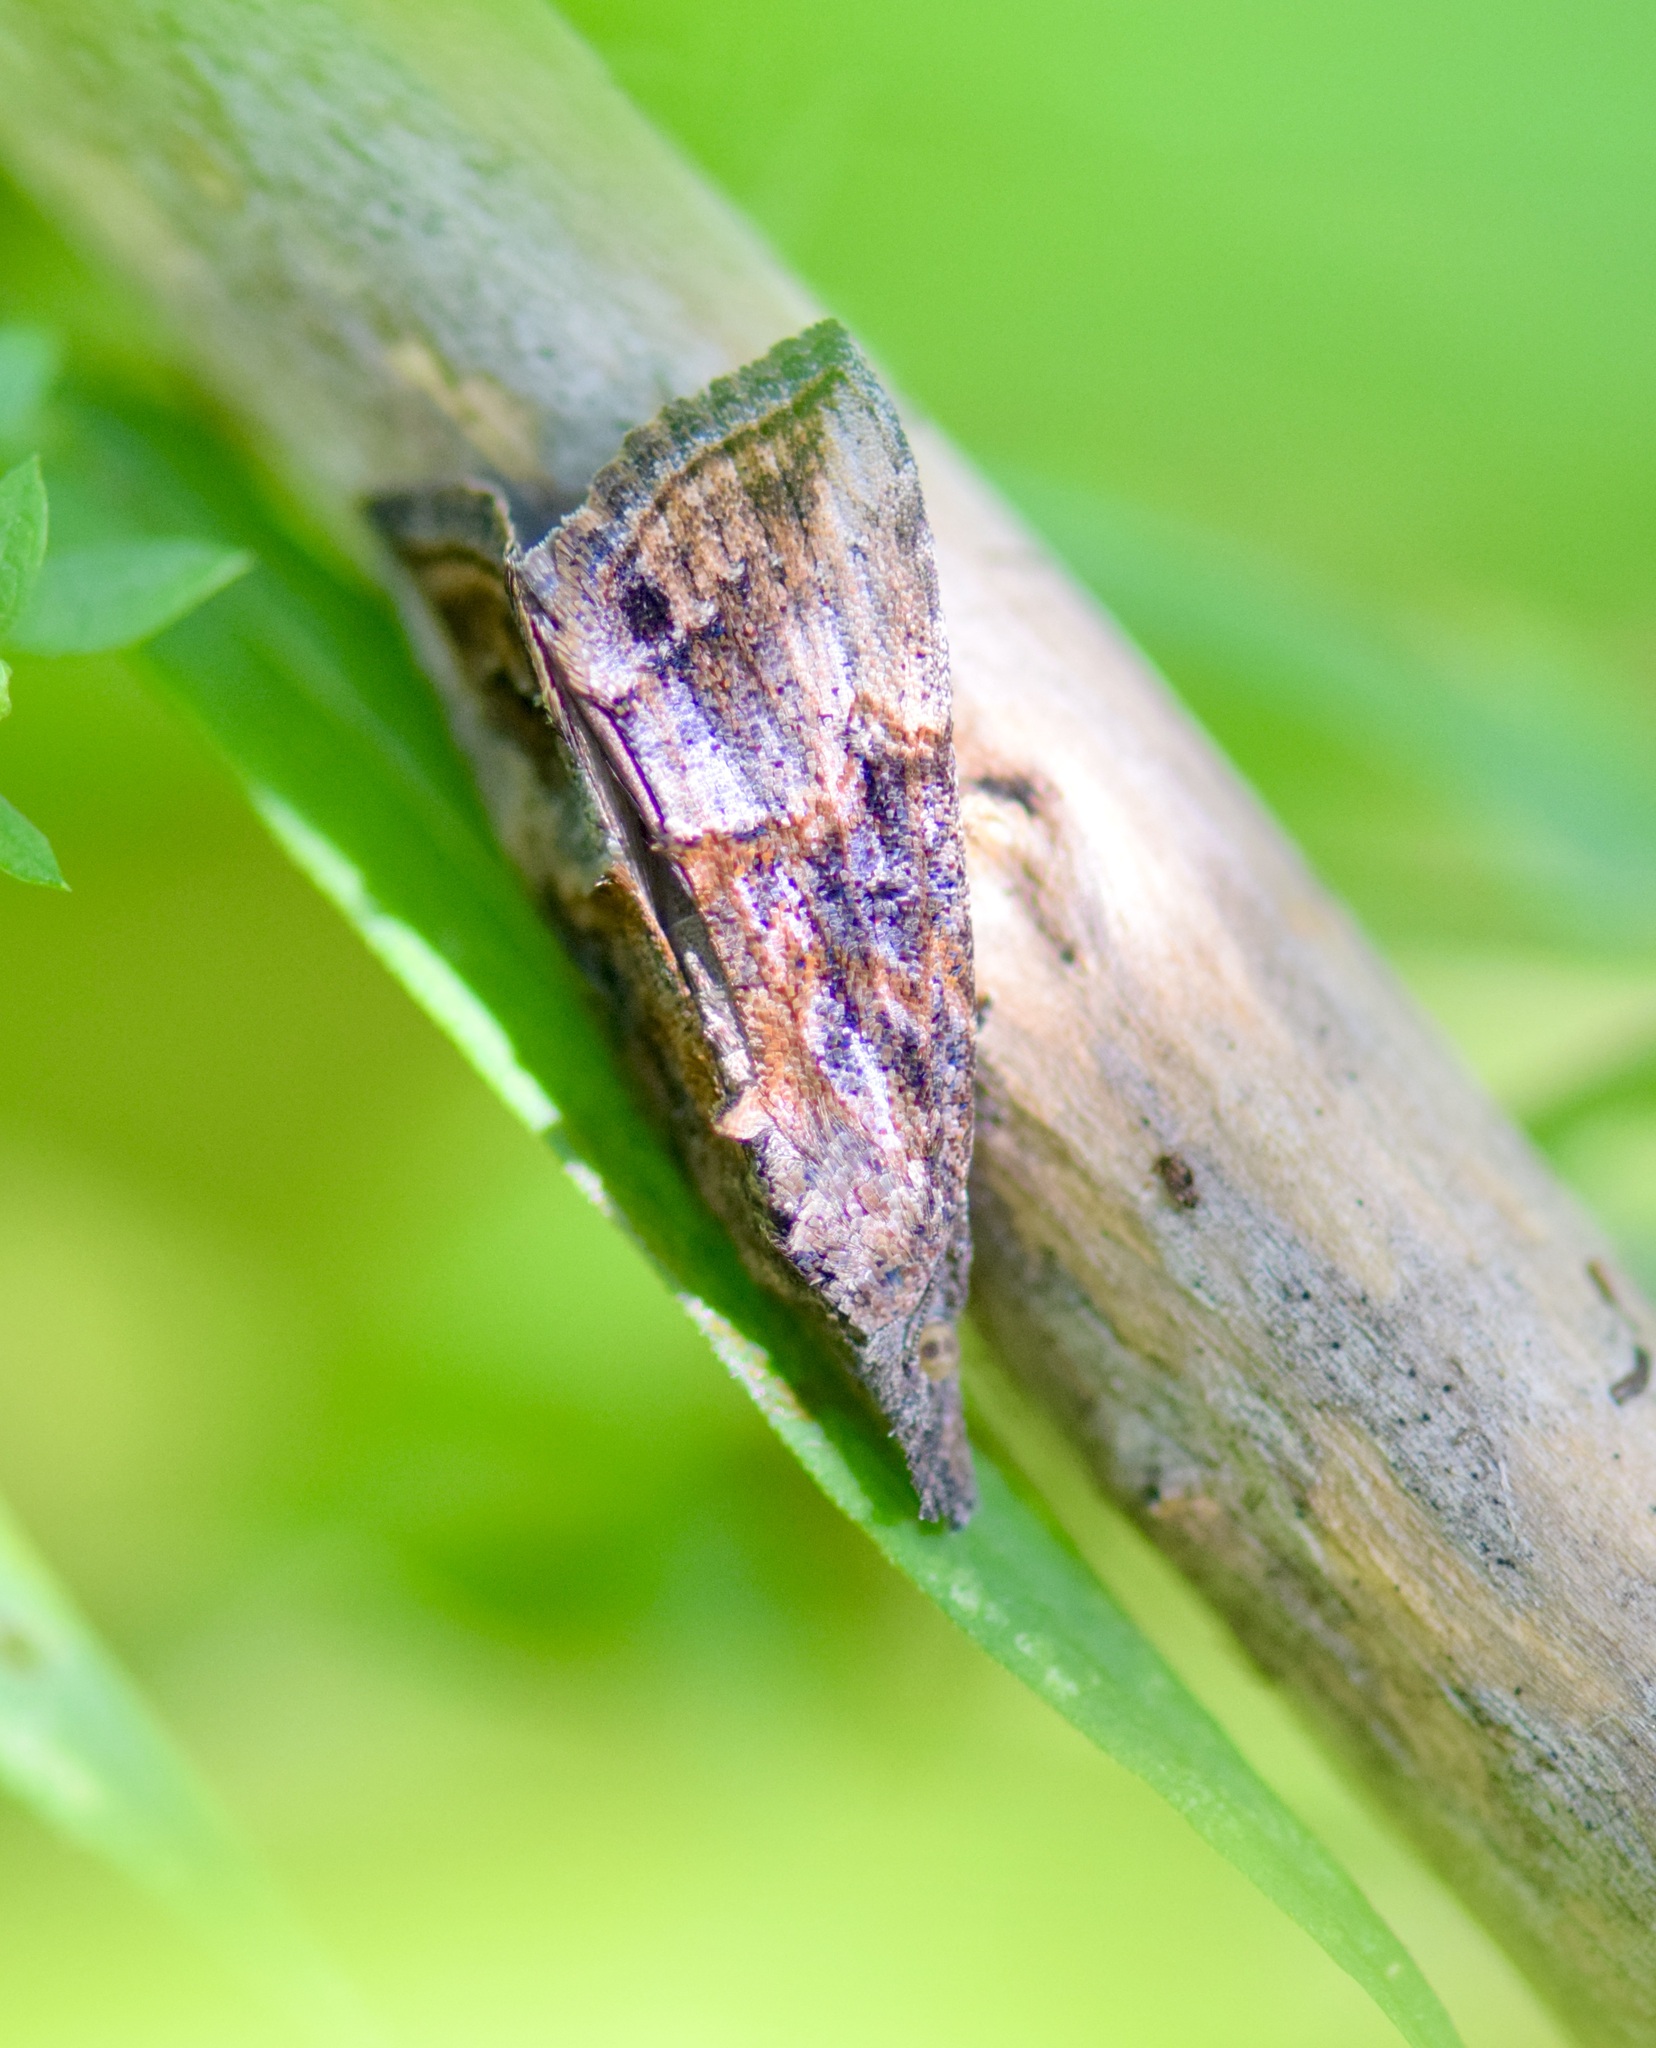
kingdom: Animalia
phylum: Arthropoda
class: Insecta
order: Lepidoptera
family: Erebidae
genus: Hypena
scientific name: Hypena scabra
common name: Green cloverworm
